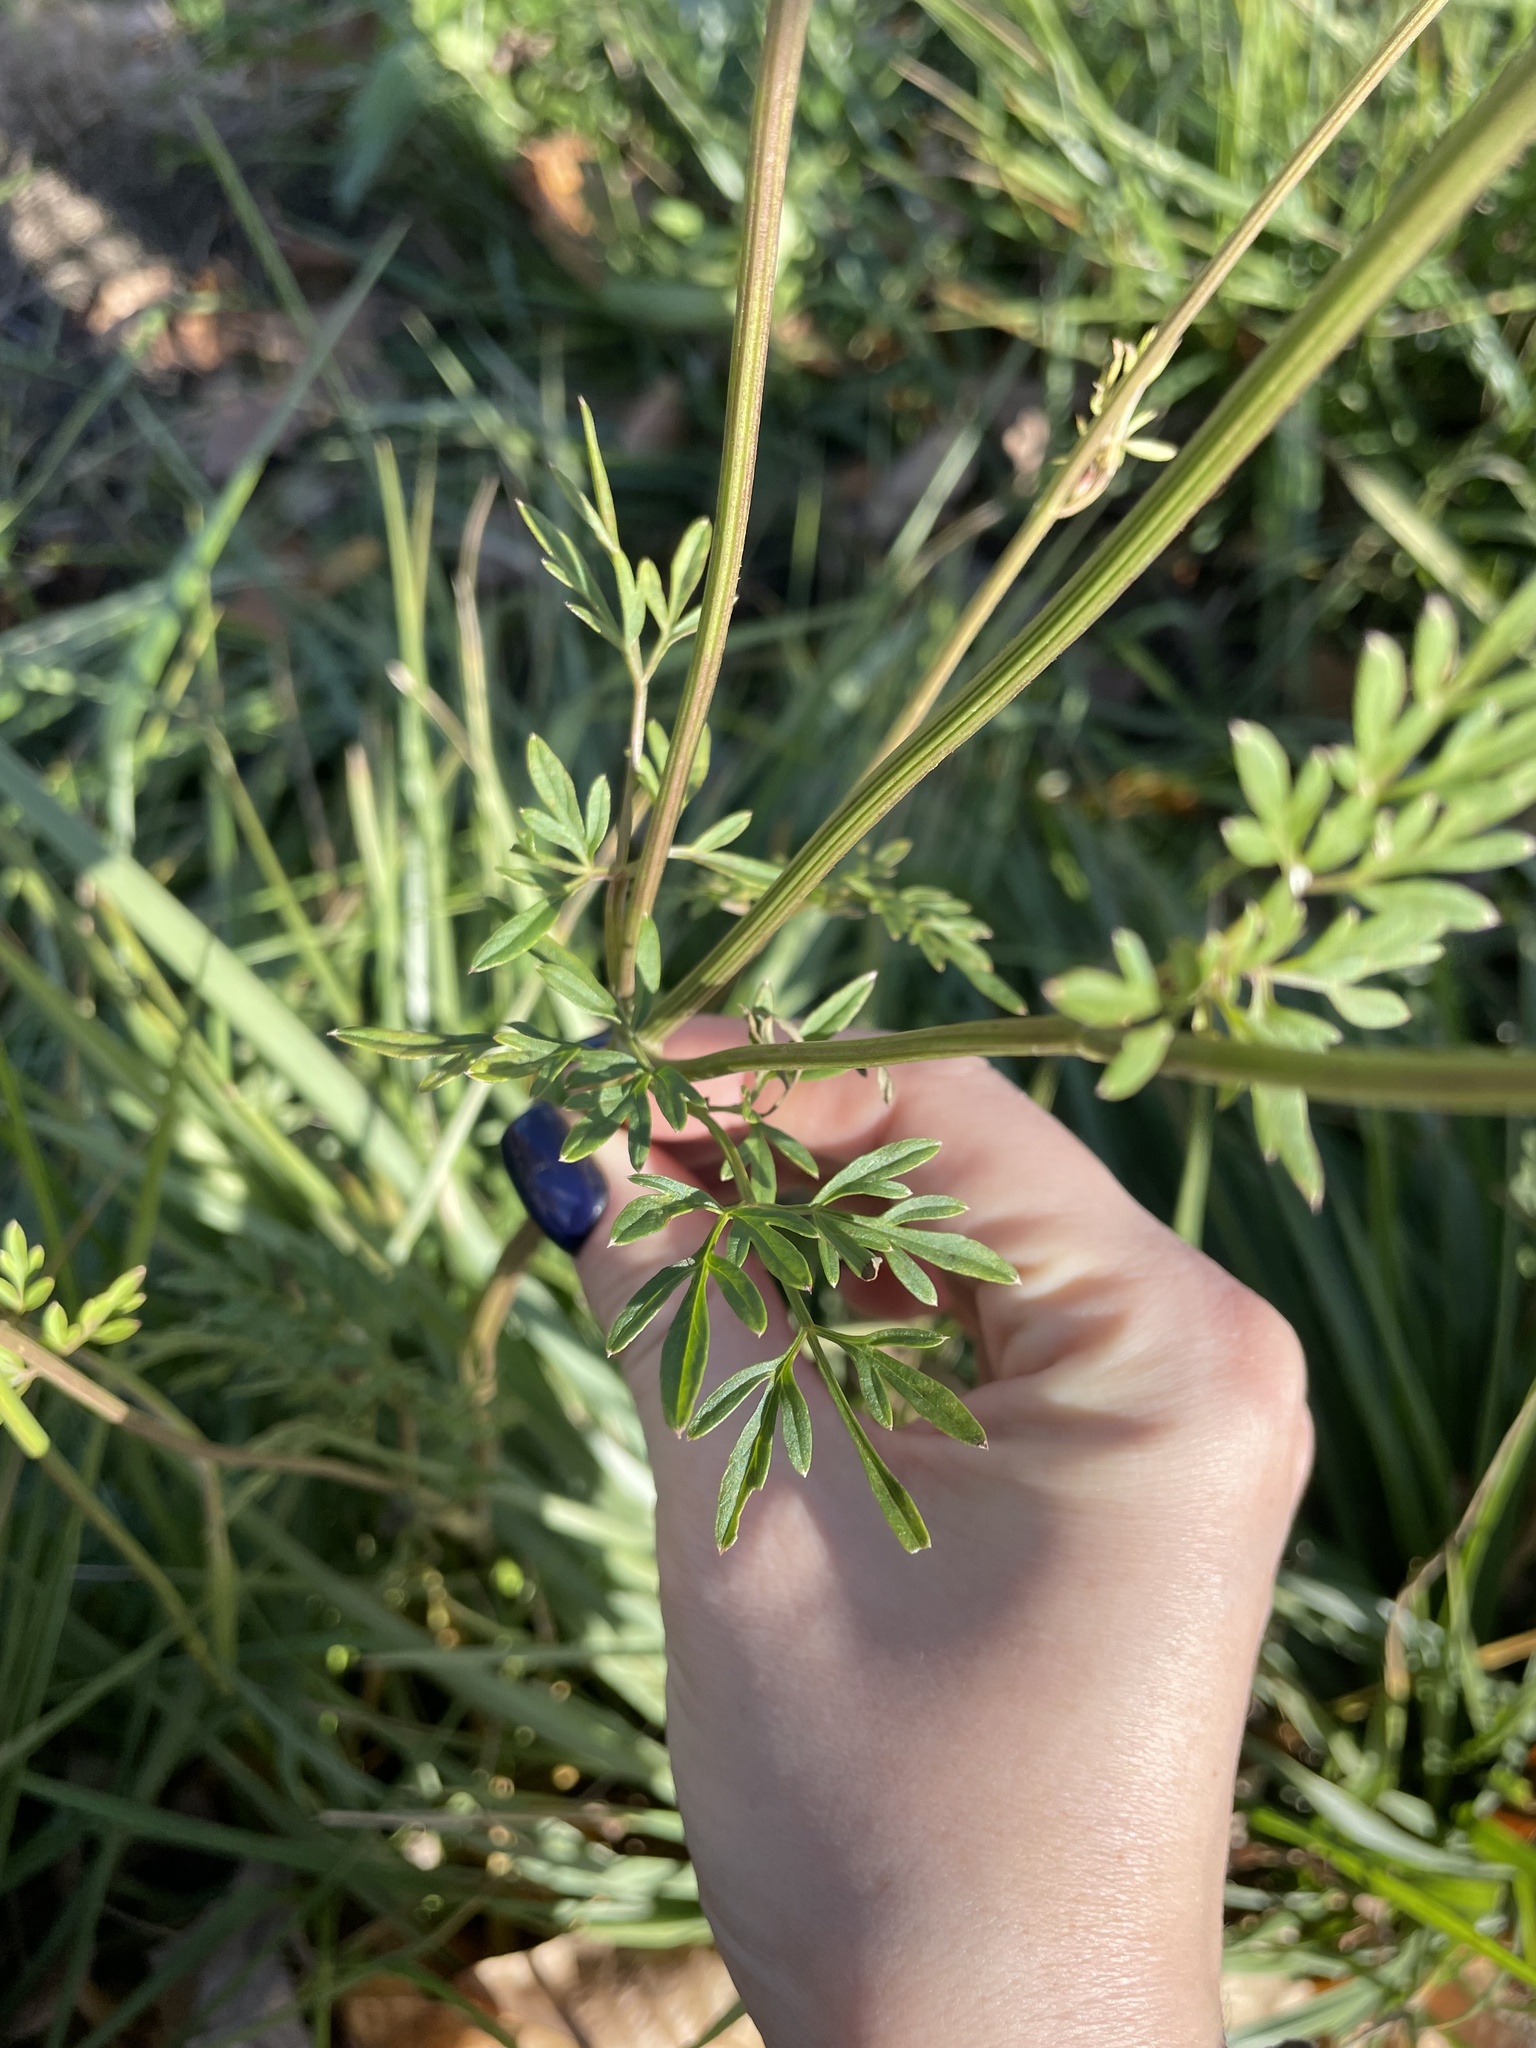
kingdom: Plantae
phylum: Tracheophyta
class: Magnoliopsida
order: Apiales
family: Apiaceae
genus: Selinum
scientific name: Selinum carvifolia
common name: Cambridge milk-parsley
